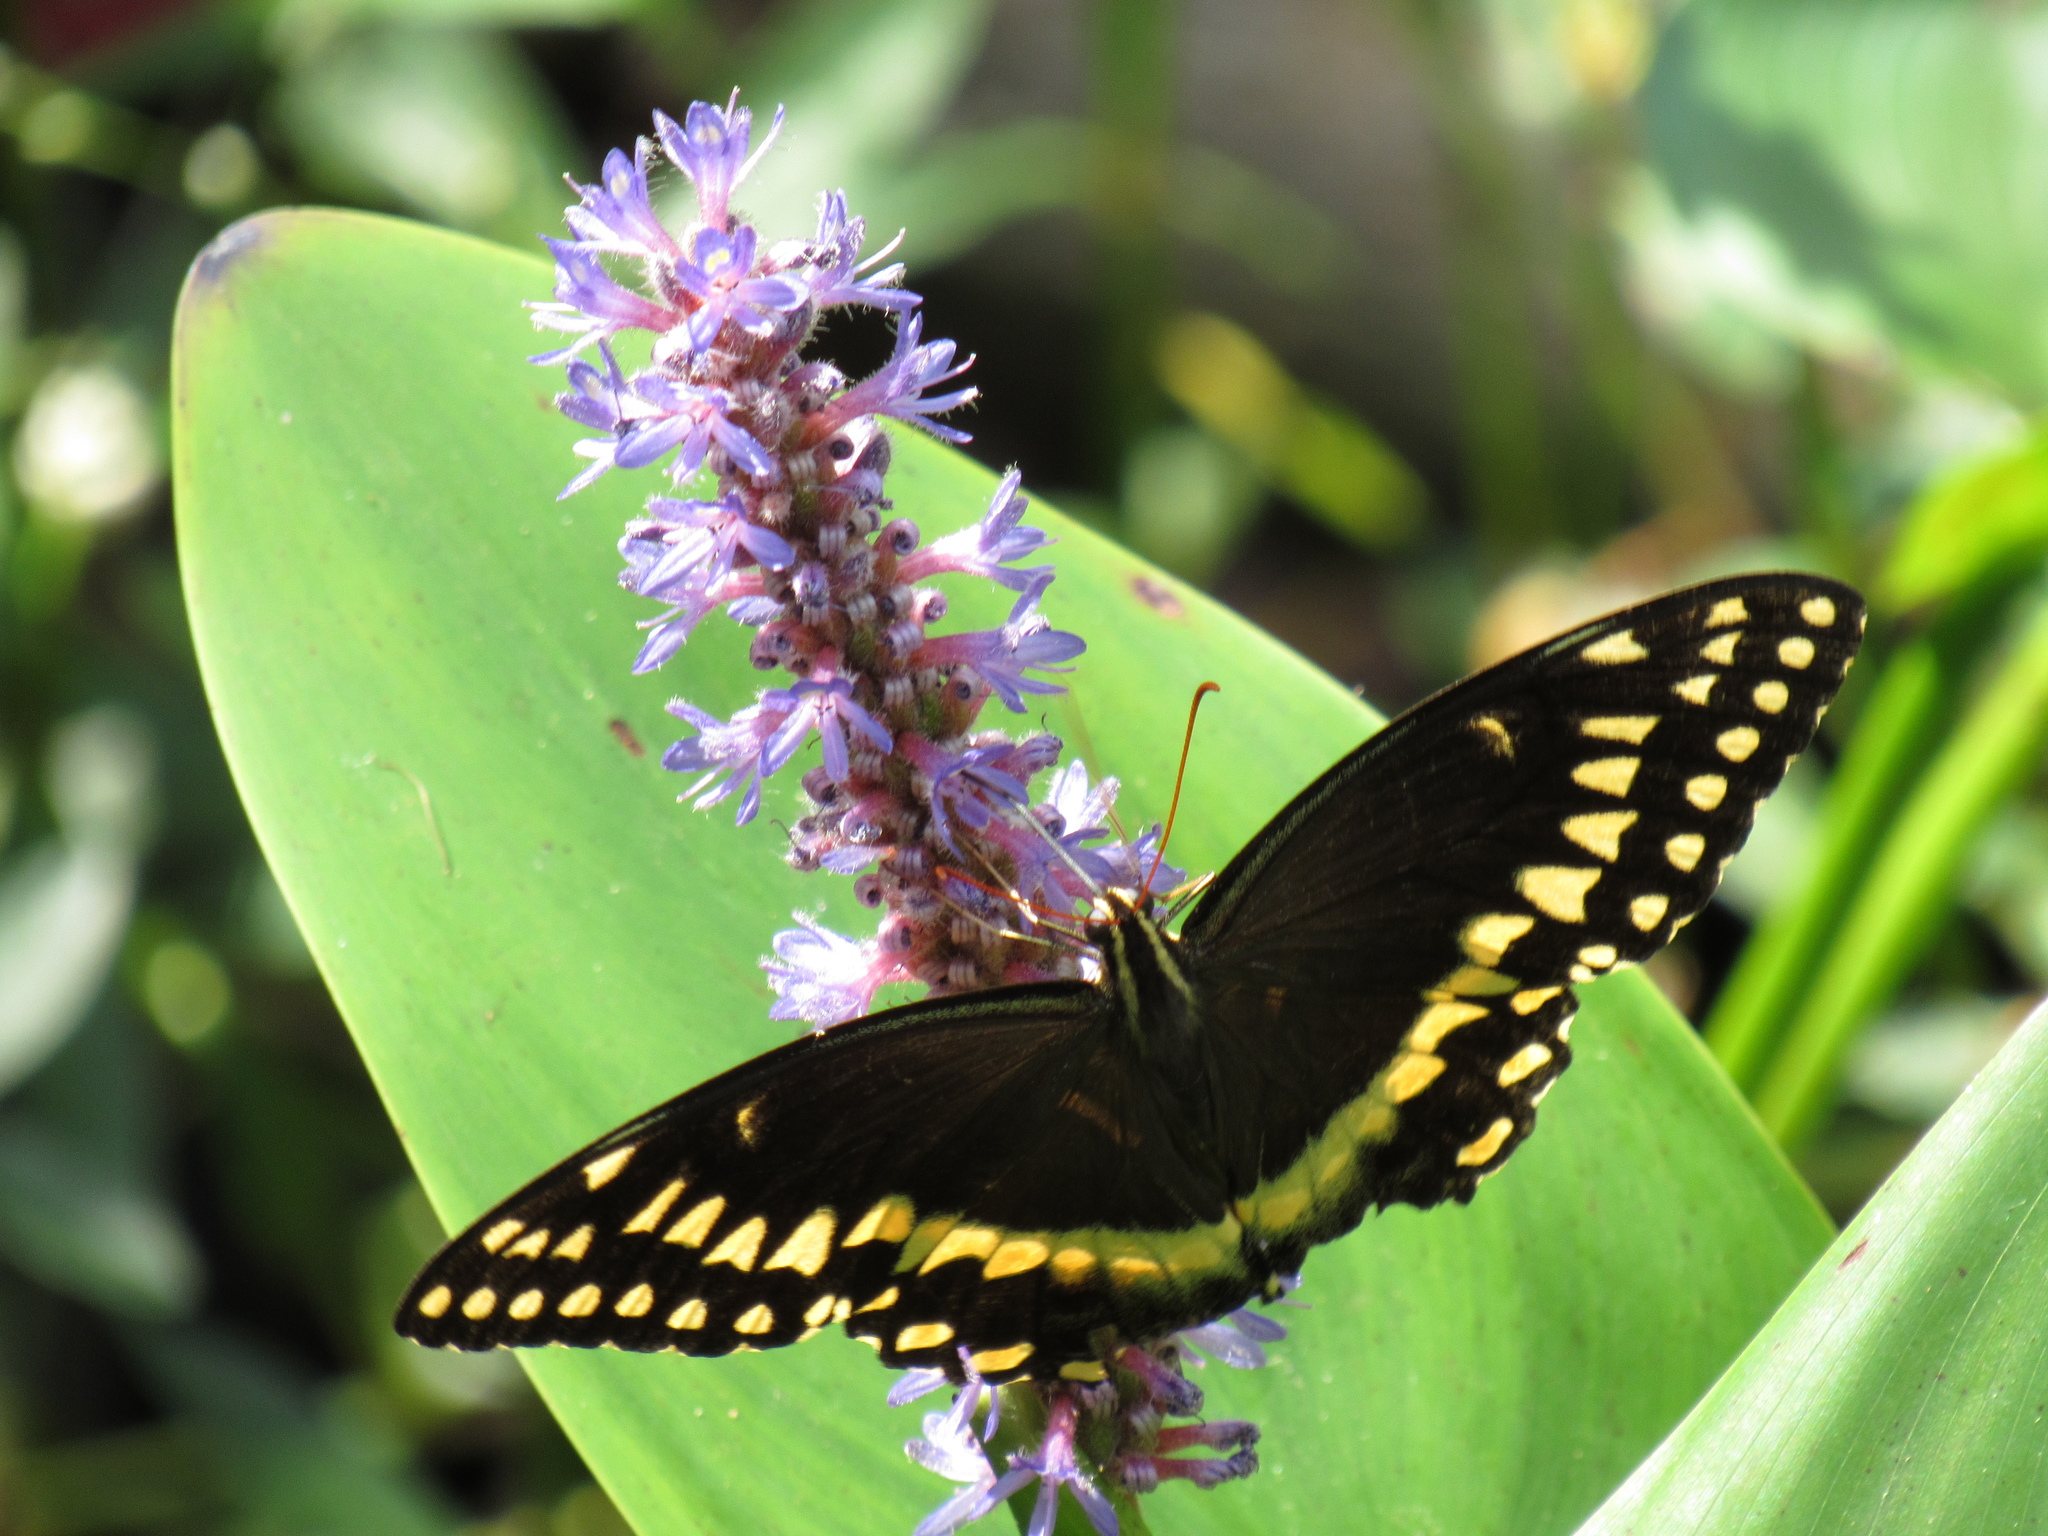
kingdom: Animalia
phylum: Arthropoda
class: Insecta
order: Lepidoptera
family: Papilionidae
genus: Papilio
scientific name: Papilio palamedes
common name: Palamedes swallowtail
